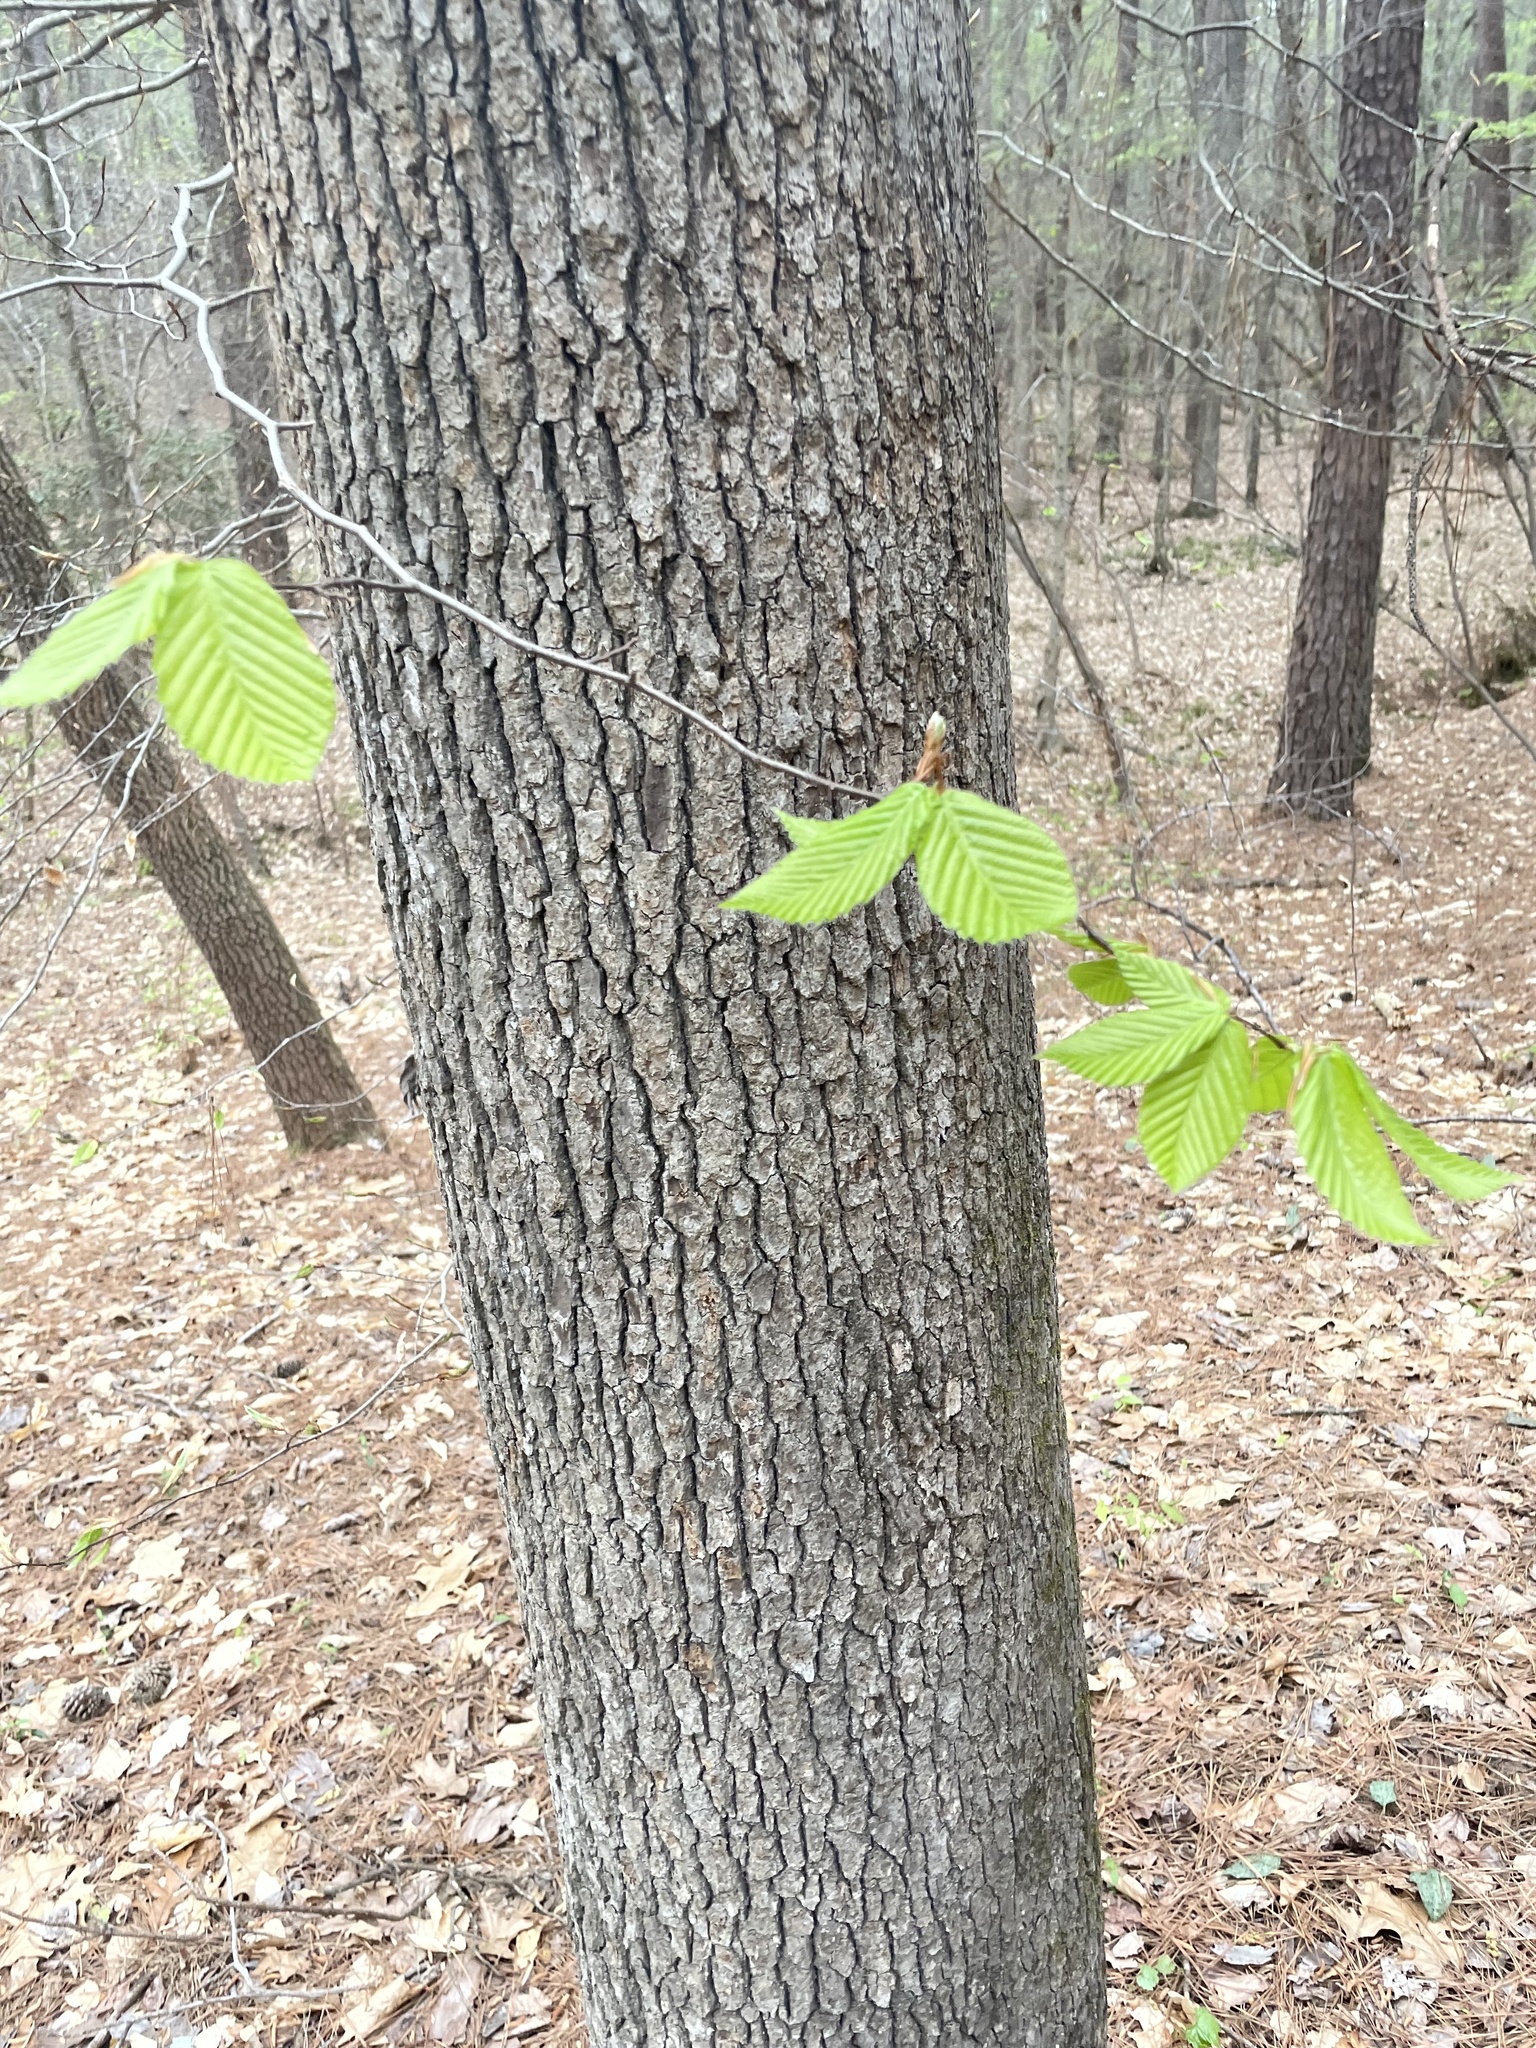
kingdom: Plantae
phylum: Tracheophyta
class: Magnoliopsida
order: Fagales
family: Fagaceae
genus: Fagus
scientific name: Fagus grandifolia
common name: American beech
